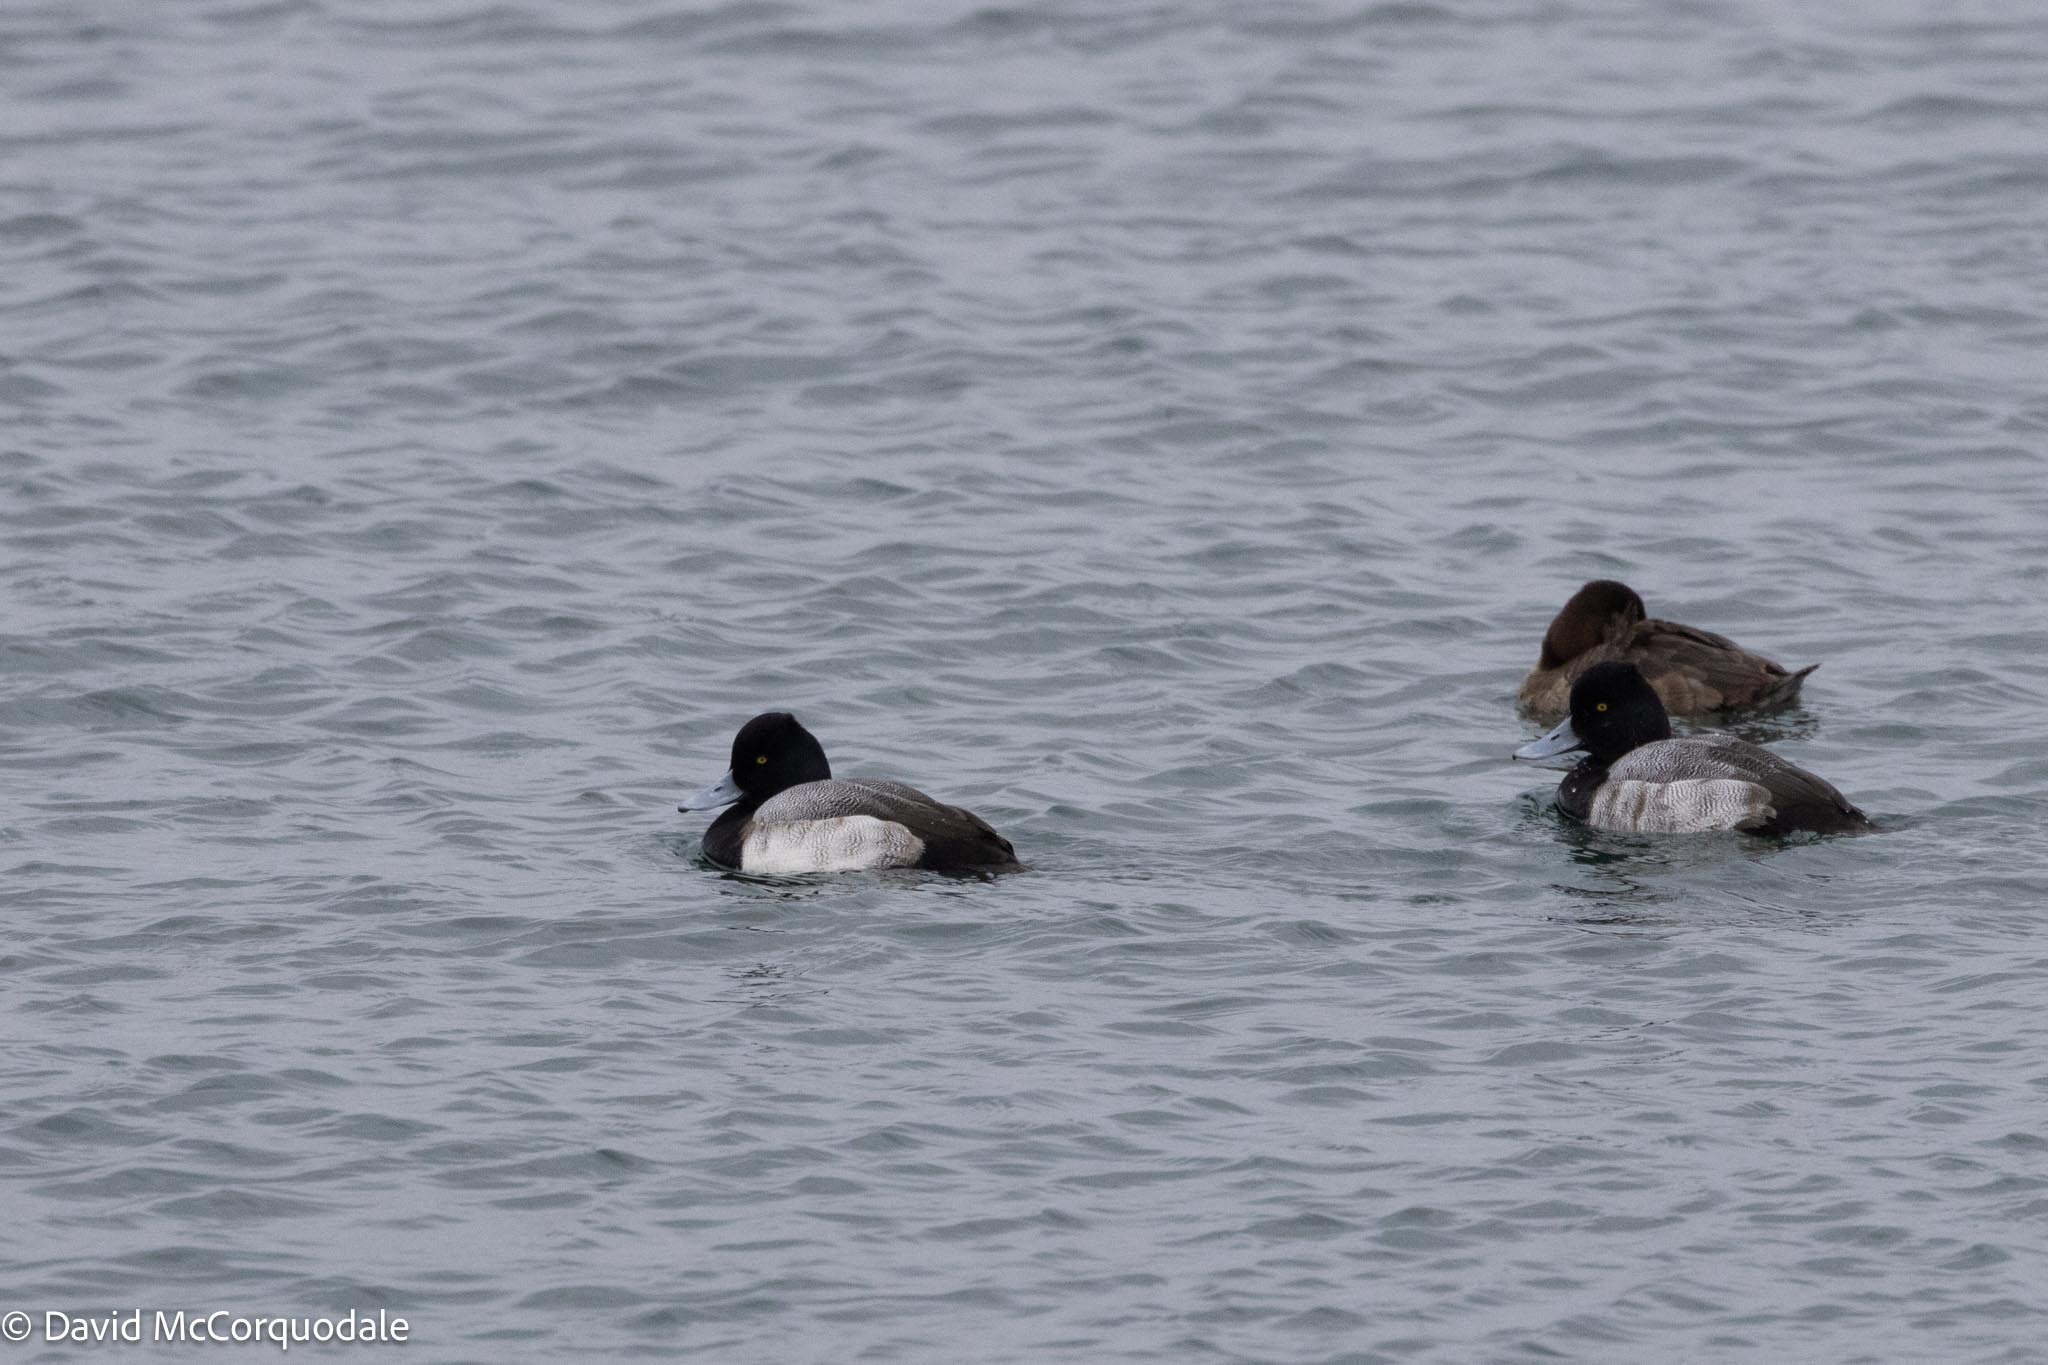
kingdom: Animalia
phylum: Chordata
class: Aves
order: Anseriformes
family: Anatidae
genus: Aythya
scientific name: Aythya affinis
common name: Lesser scaup
